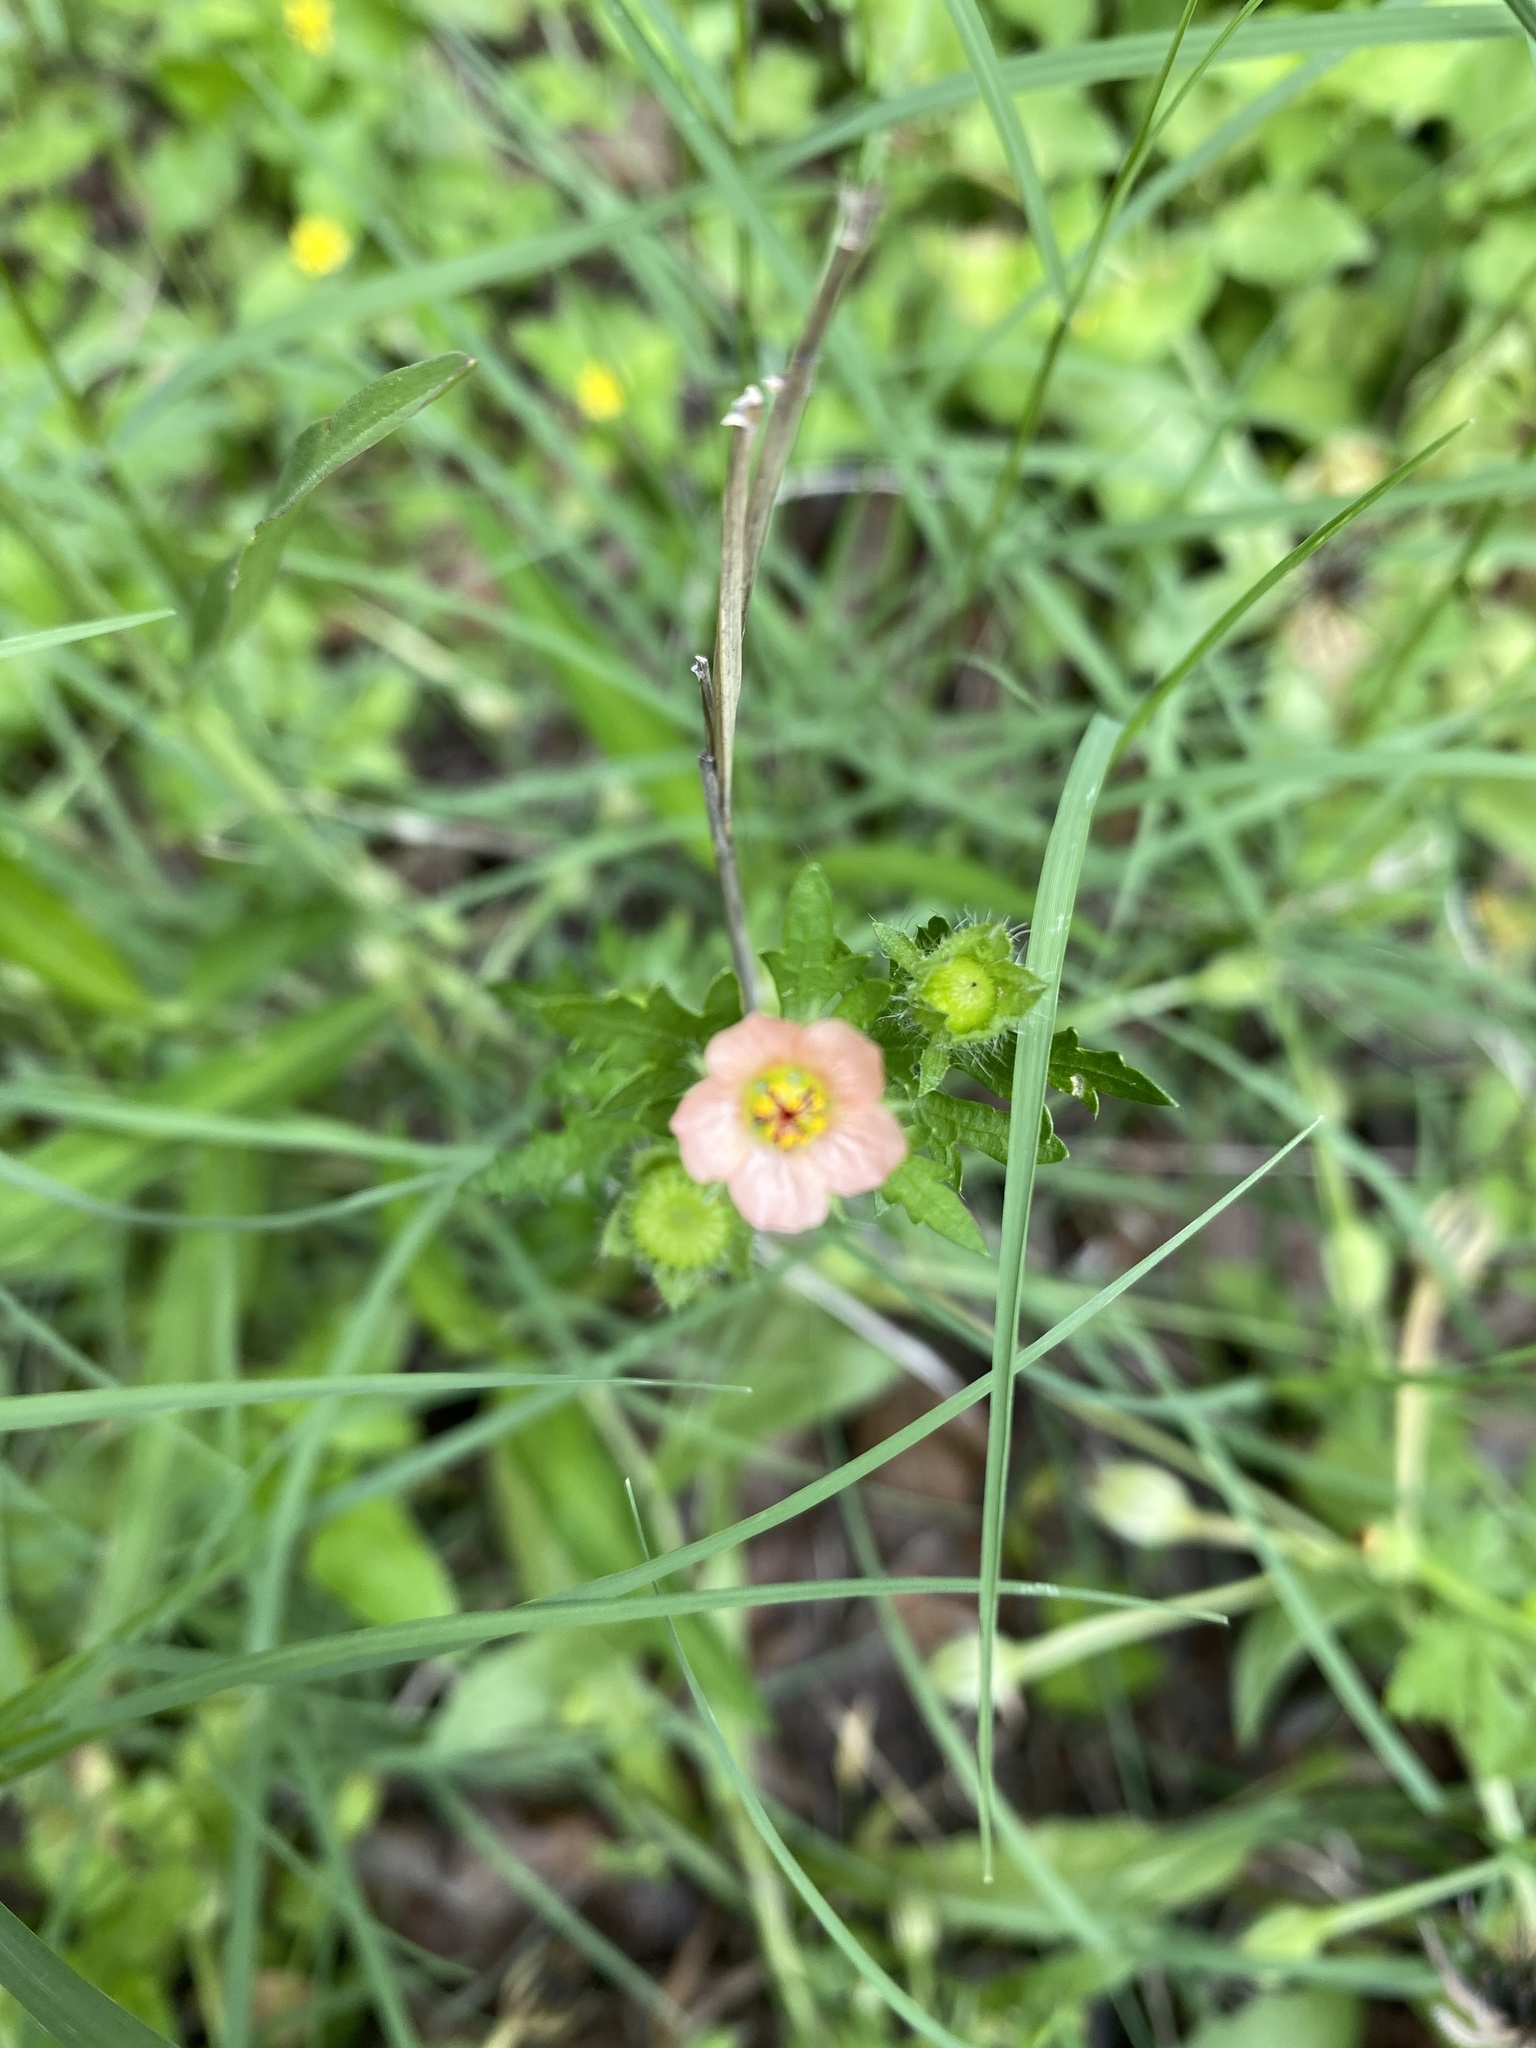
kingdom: Plantae
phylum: Tracheophyta
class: Magnoliopsida
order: Malvales
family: Malvaceae
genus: Modiola
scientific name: Modiola caroliniana
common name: Carolina bristlemallow
